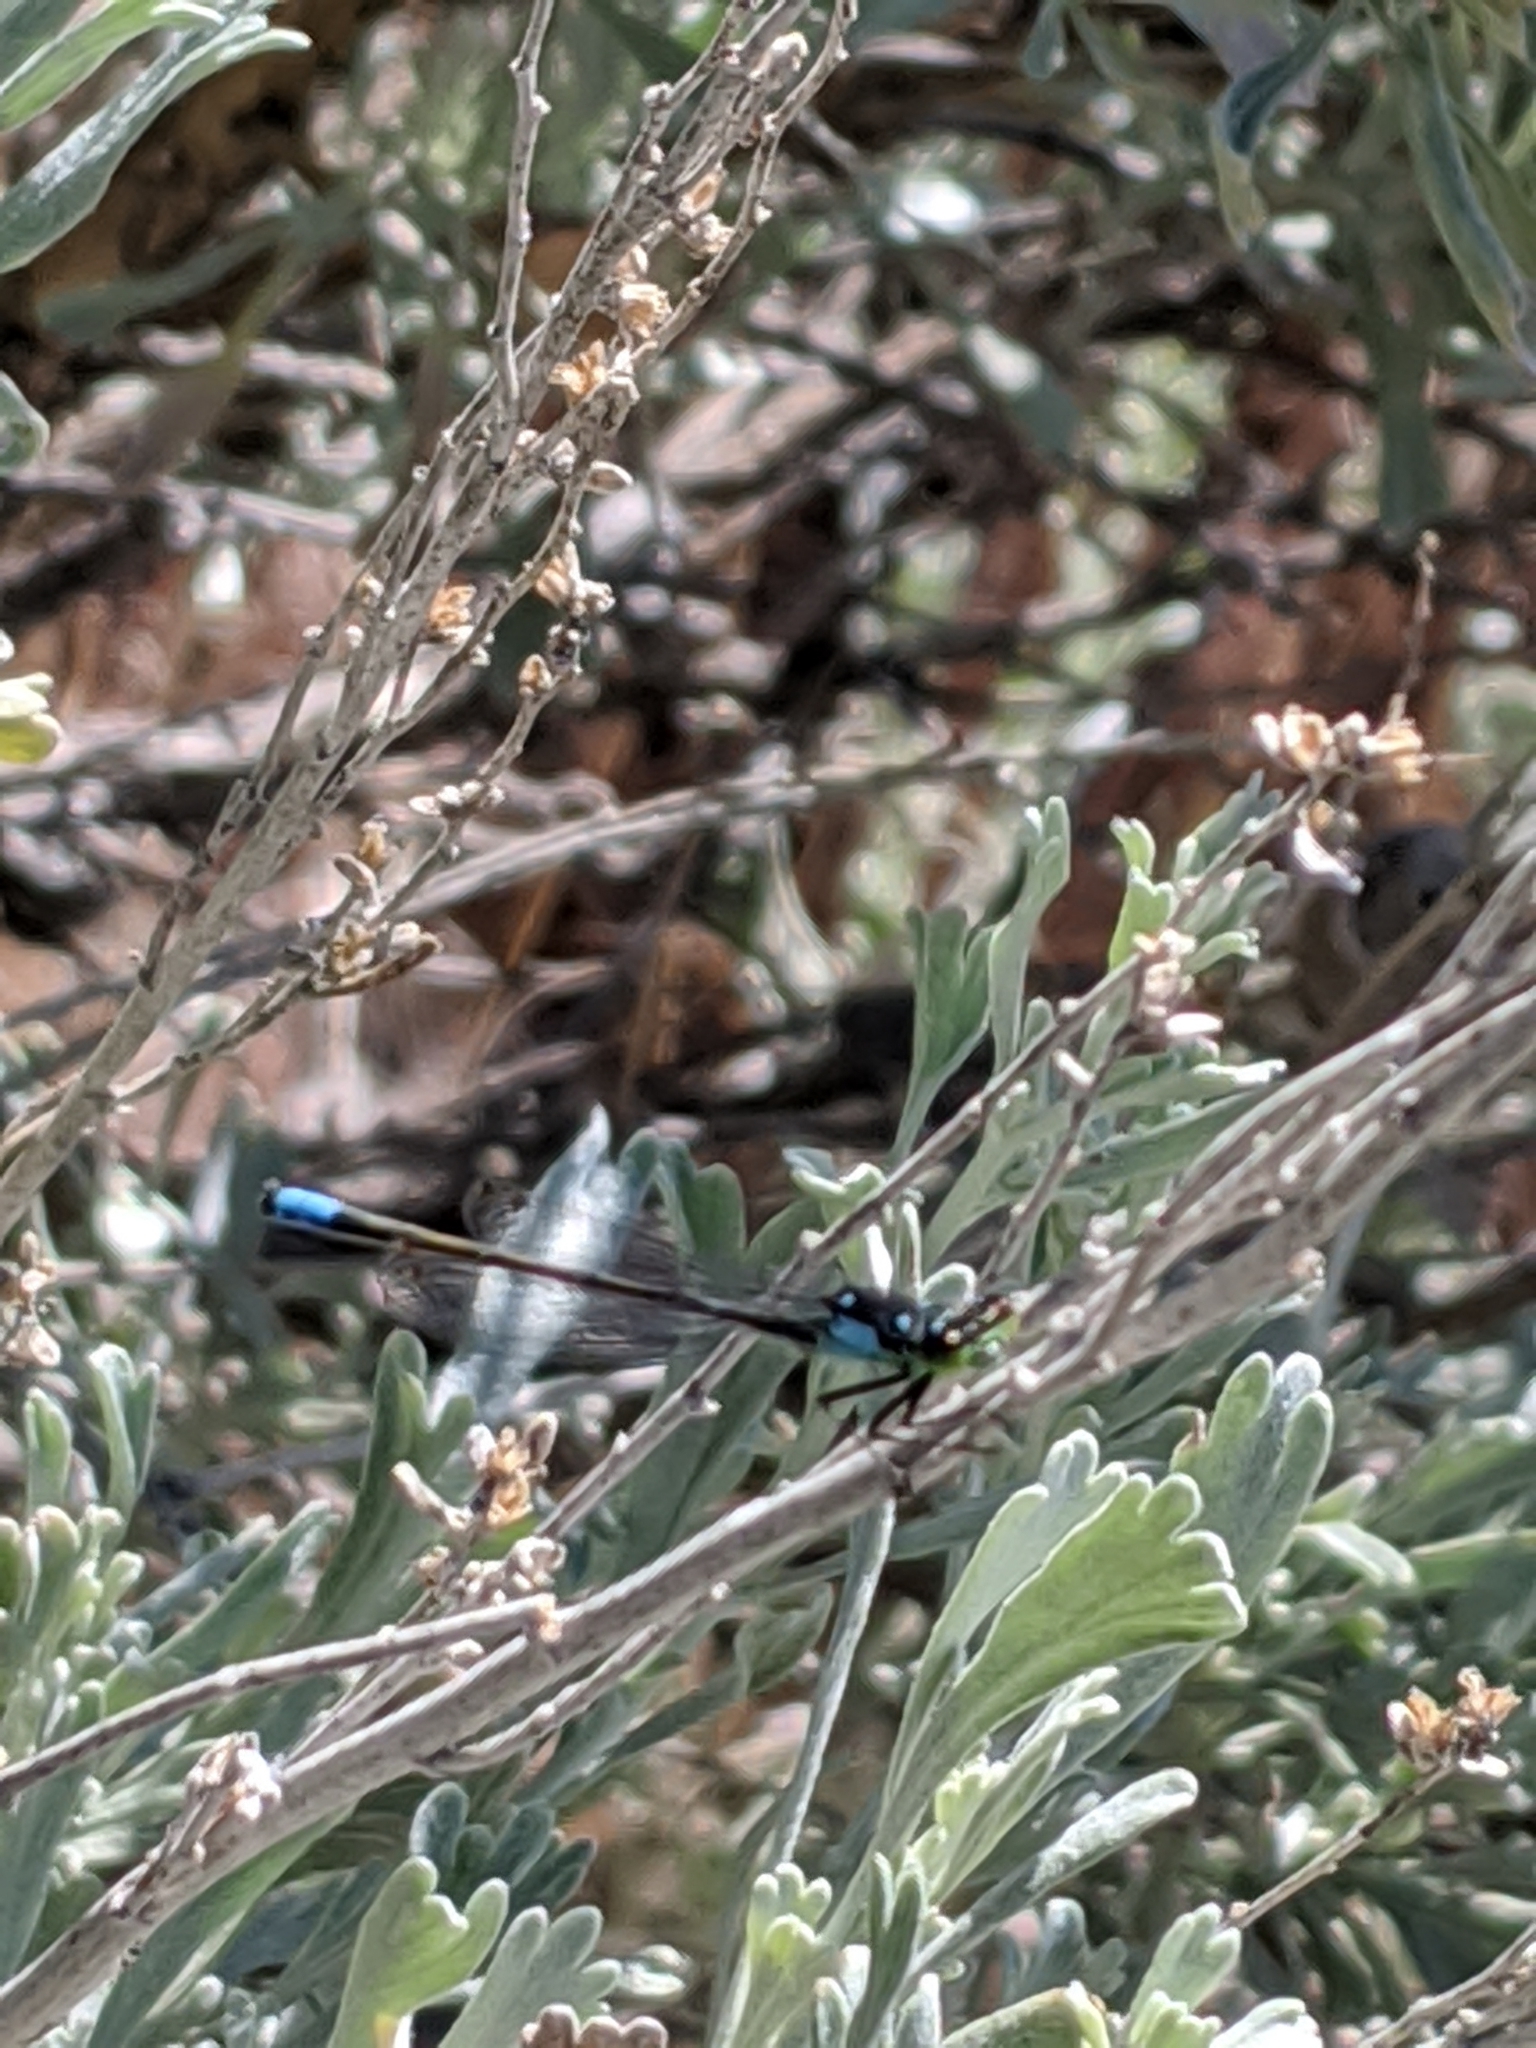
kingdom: Animalia
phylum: Arthropoda
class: Insecta
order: Odonata
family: Coenagrionidae
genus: Ischnura
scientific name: Ischnura cervula
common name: Pacific forktail
